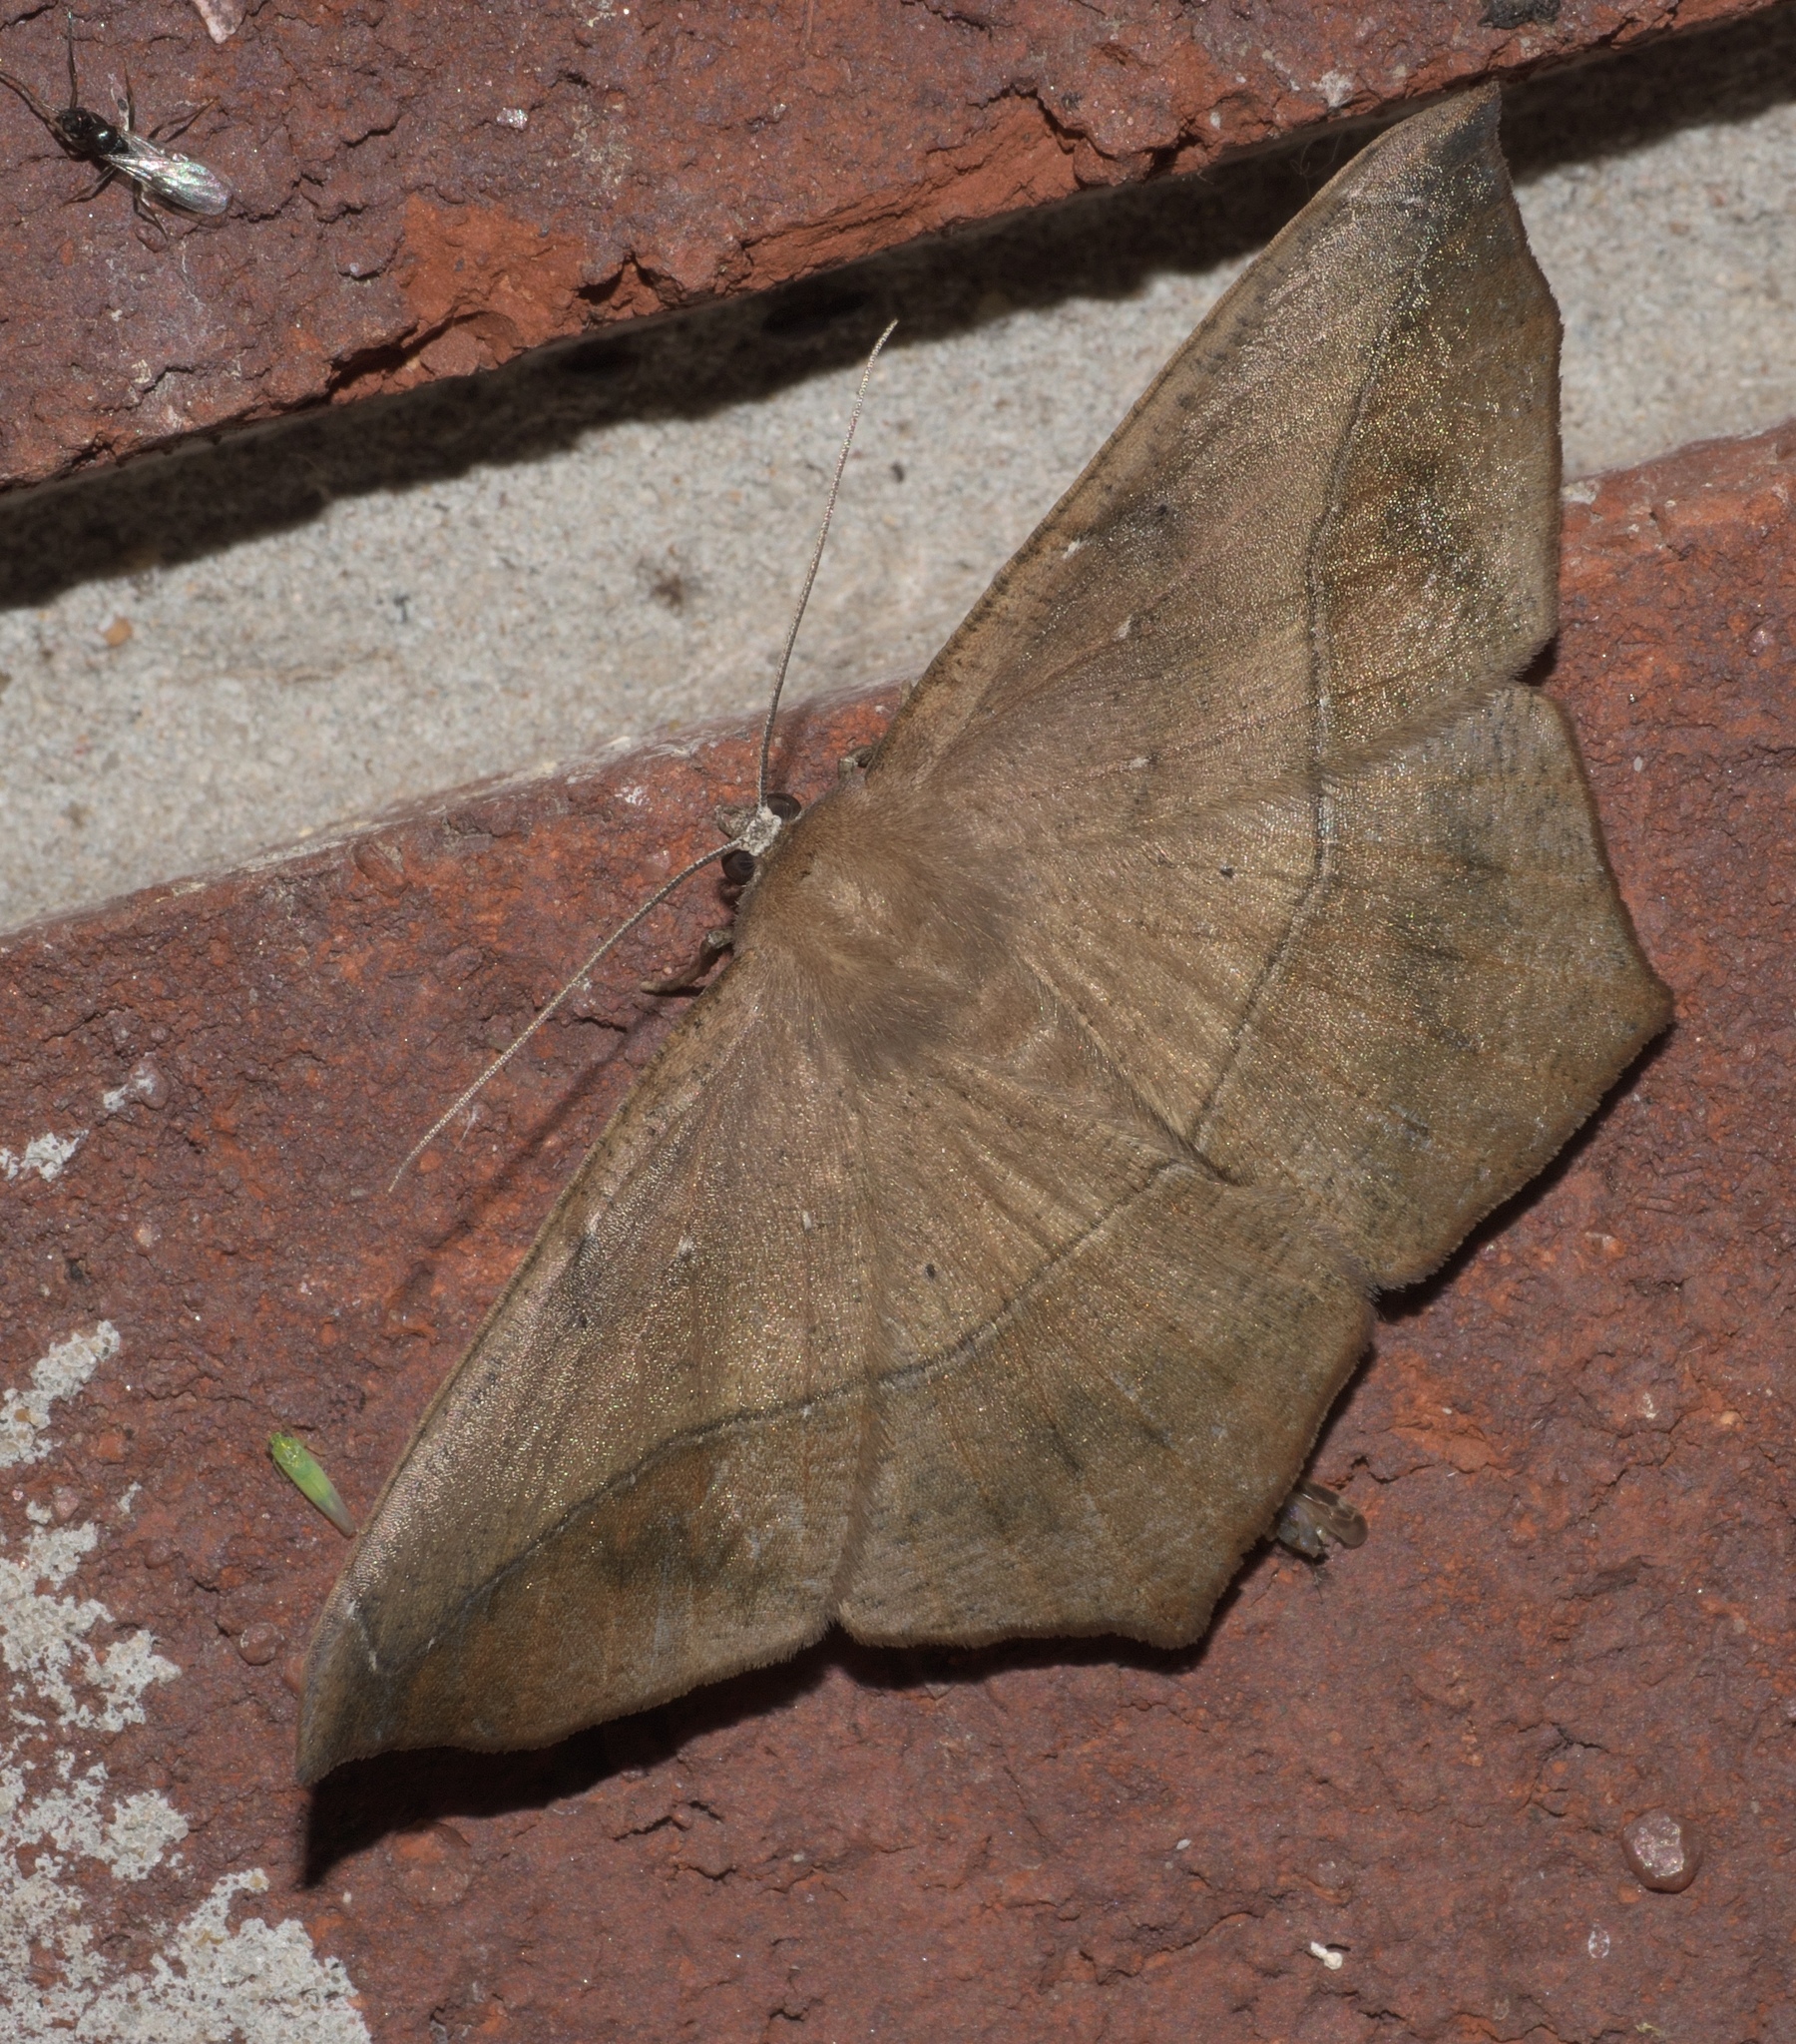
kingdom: Animalia
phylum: Arthropoda
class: Insecta
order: Lepidoptera
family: Geometridae
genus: Prochoerodes
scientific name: Prochoerodes lineola
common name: Large maple spanworm
